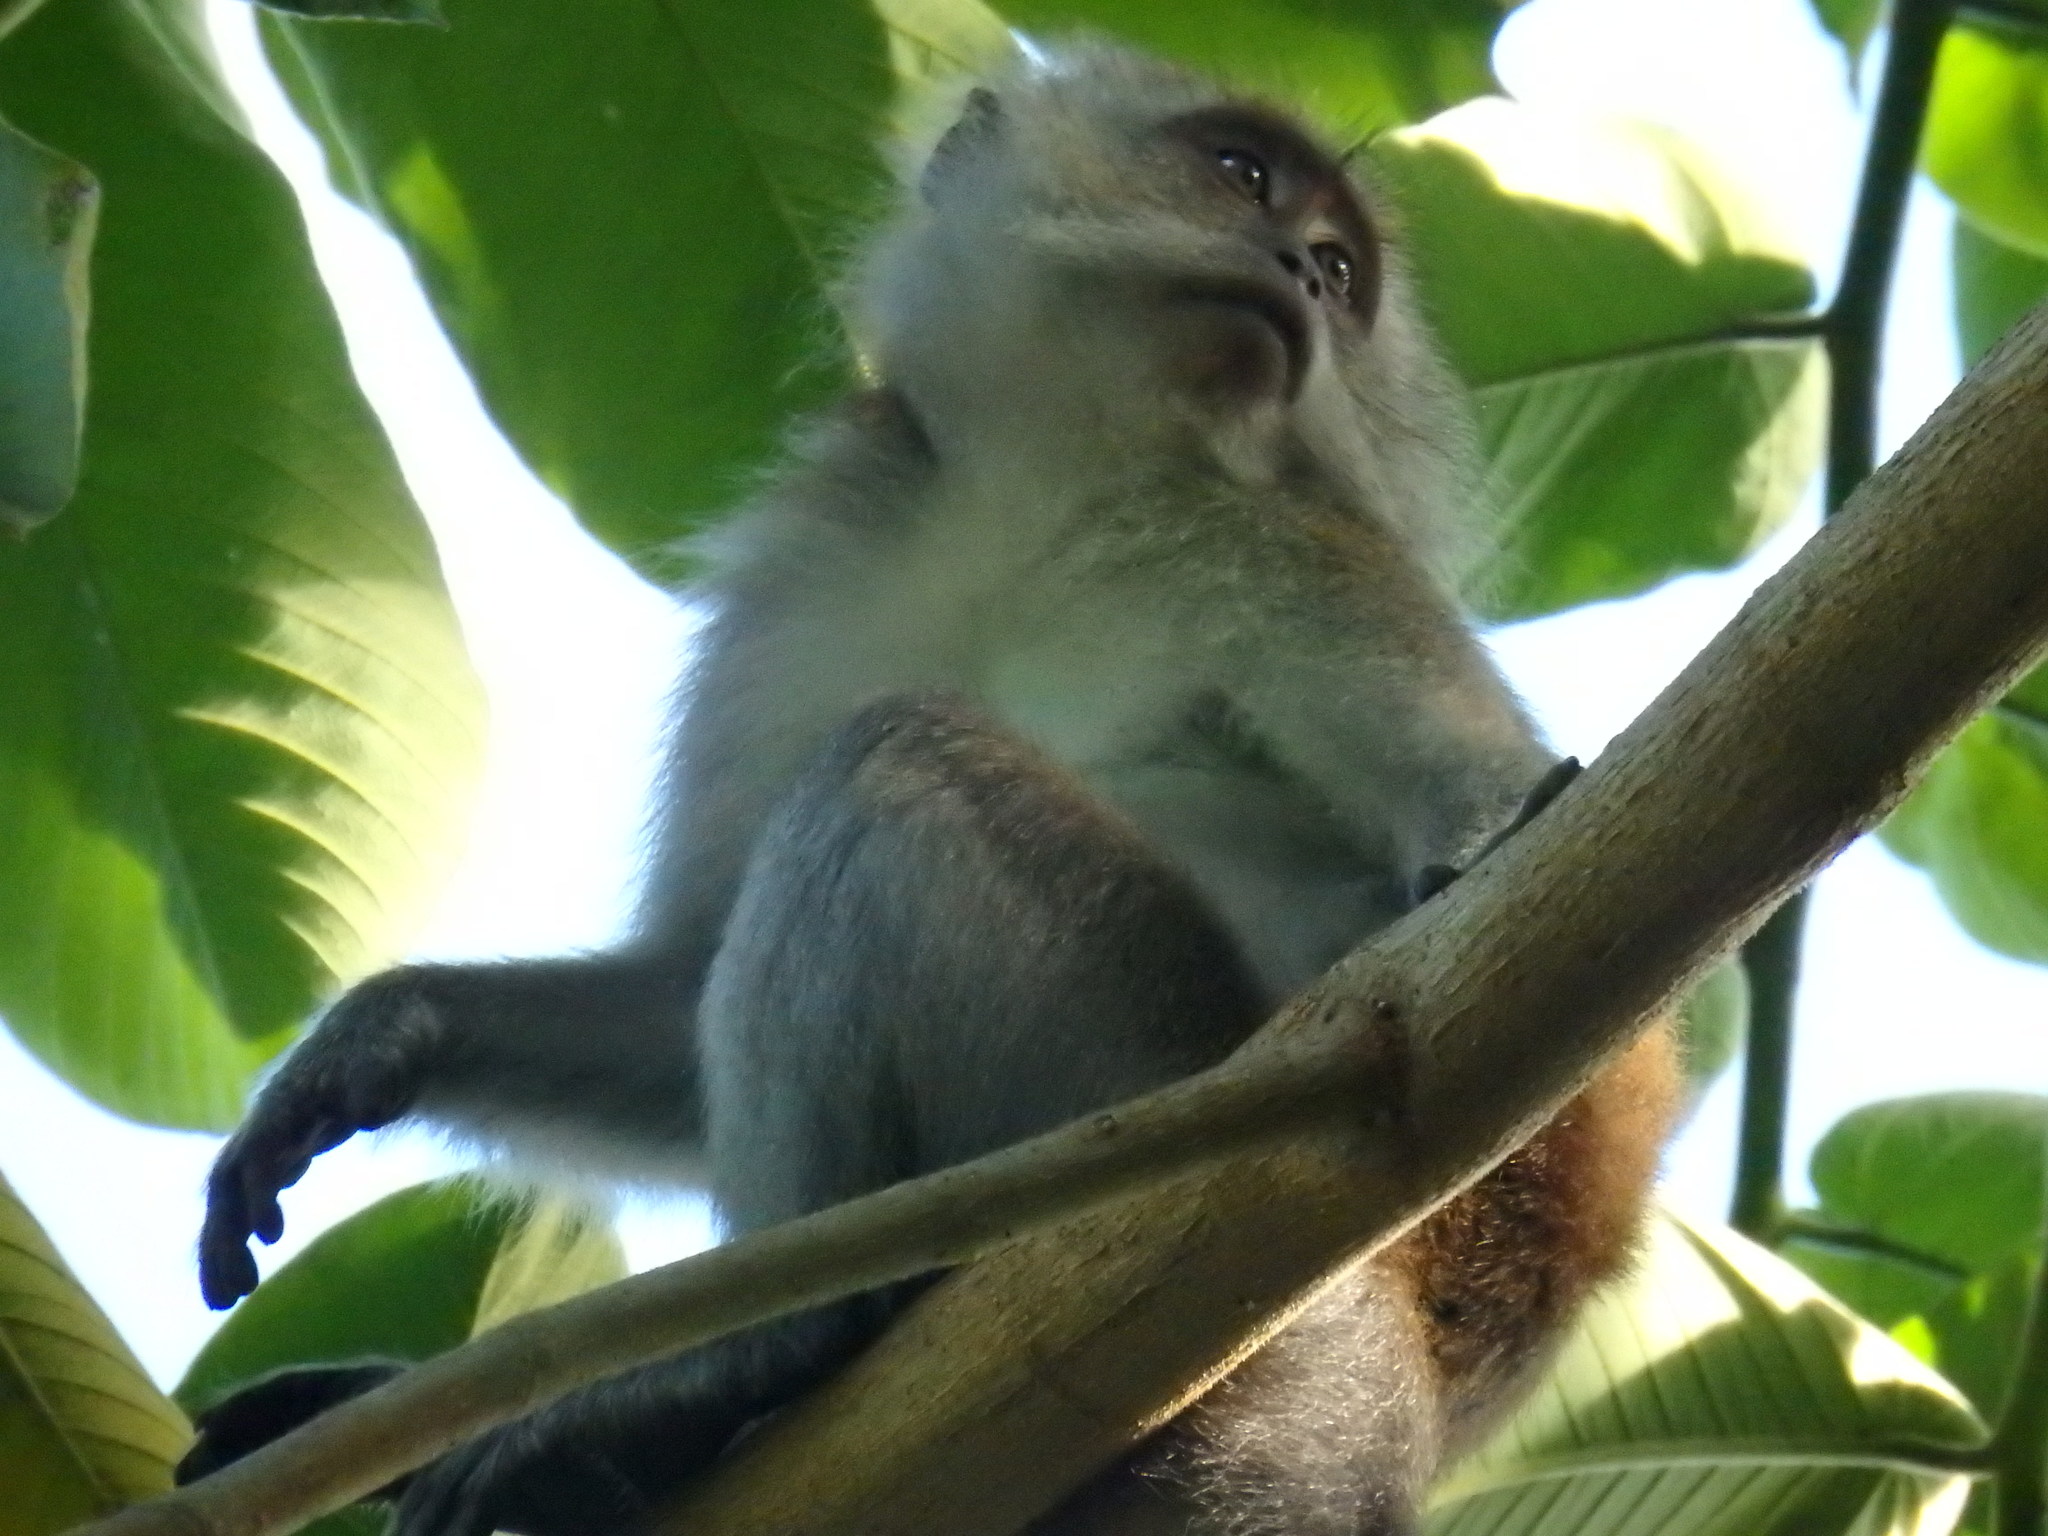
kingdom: Animalia
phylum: Chordata
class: Mammalia
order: Primates
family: Cercopithecidae
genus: Macaca
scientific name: Macaca fascicularis
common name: Crab-eating macaque
